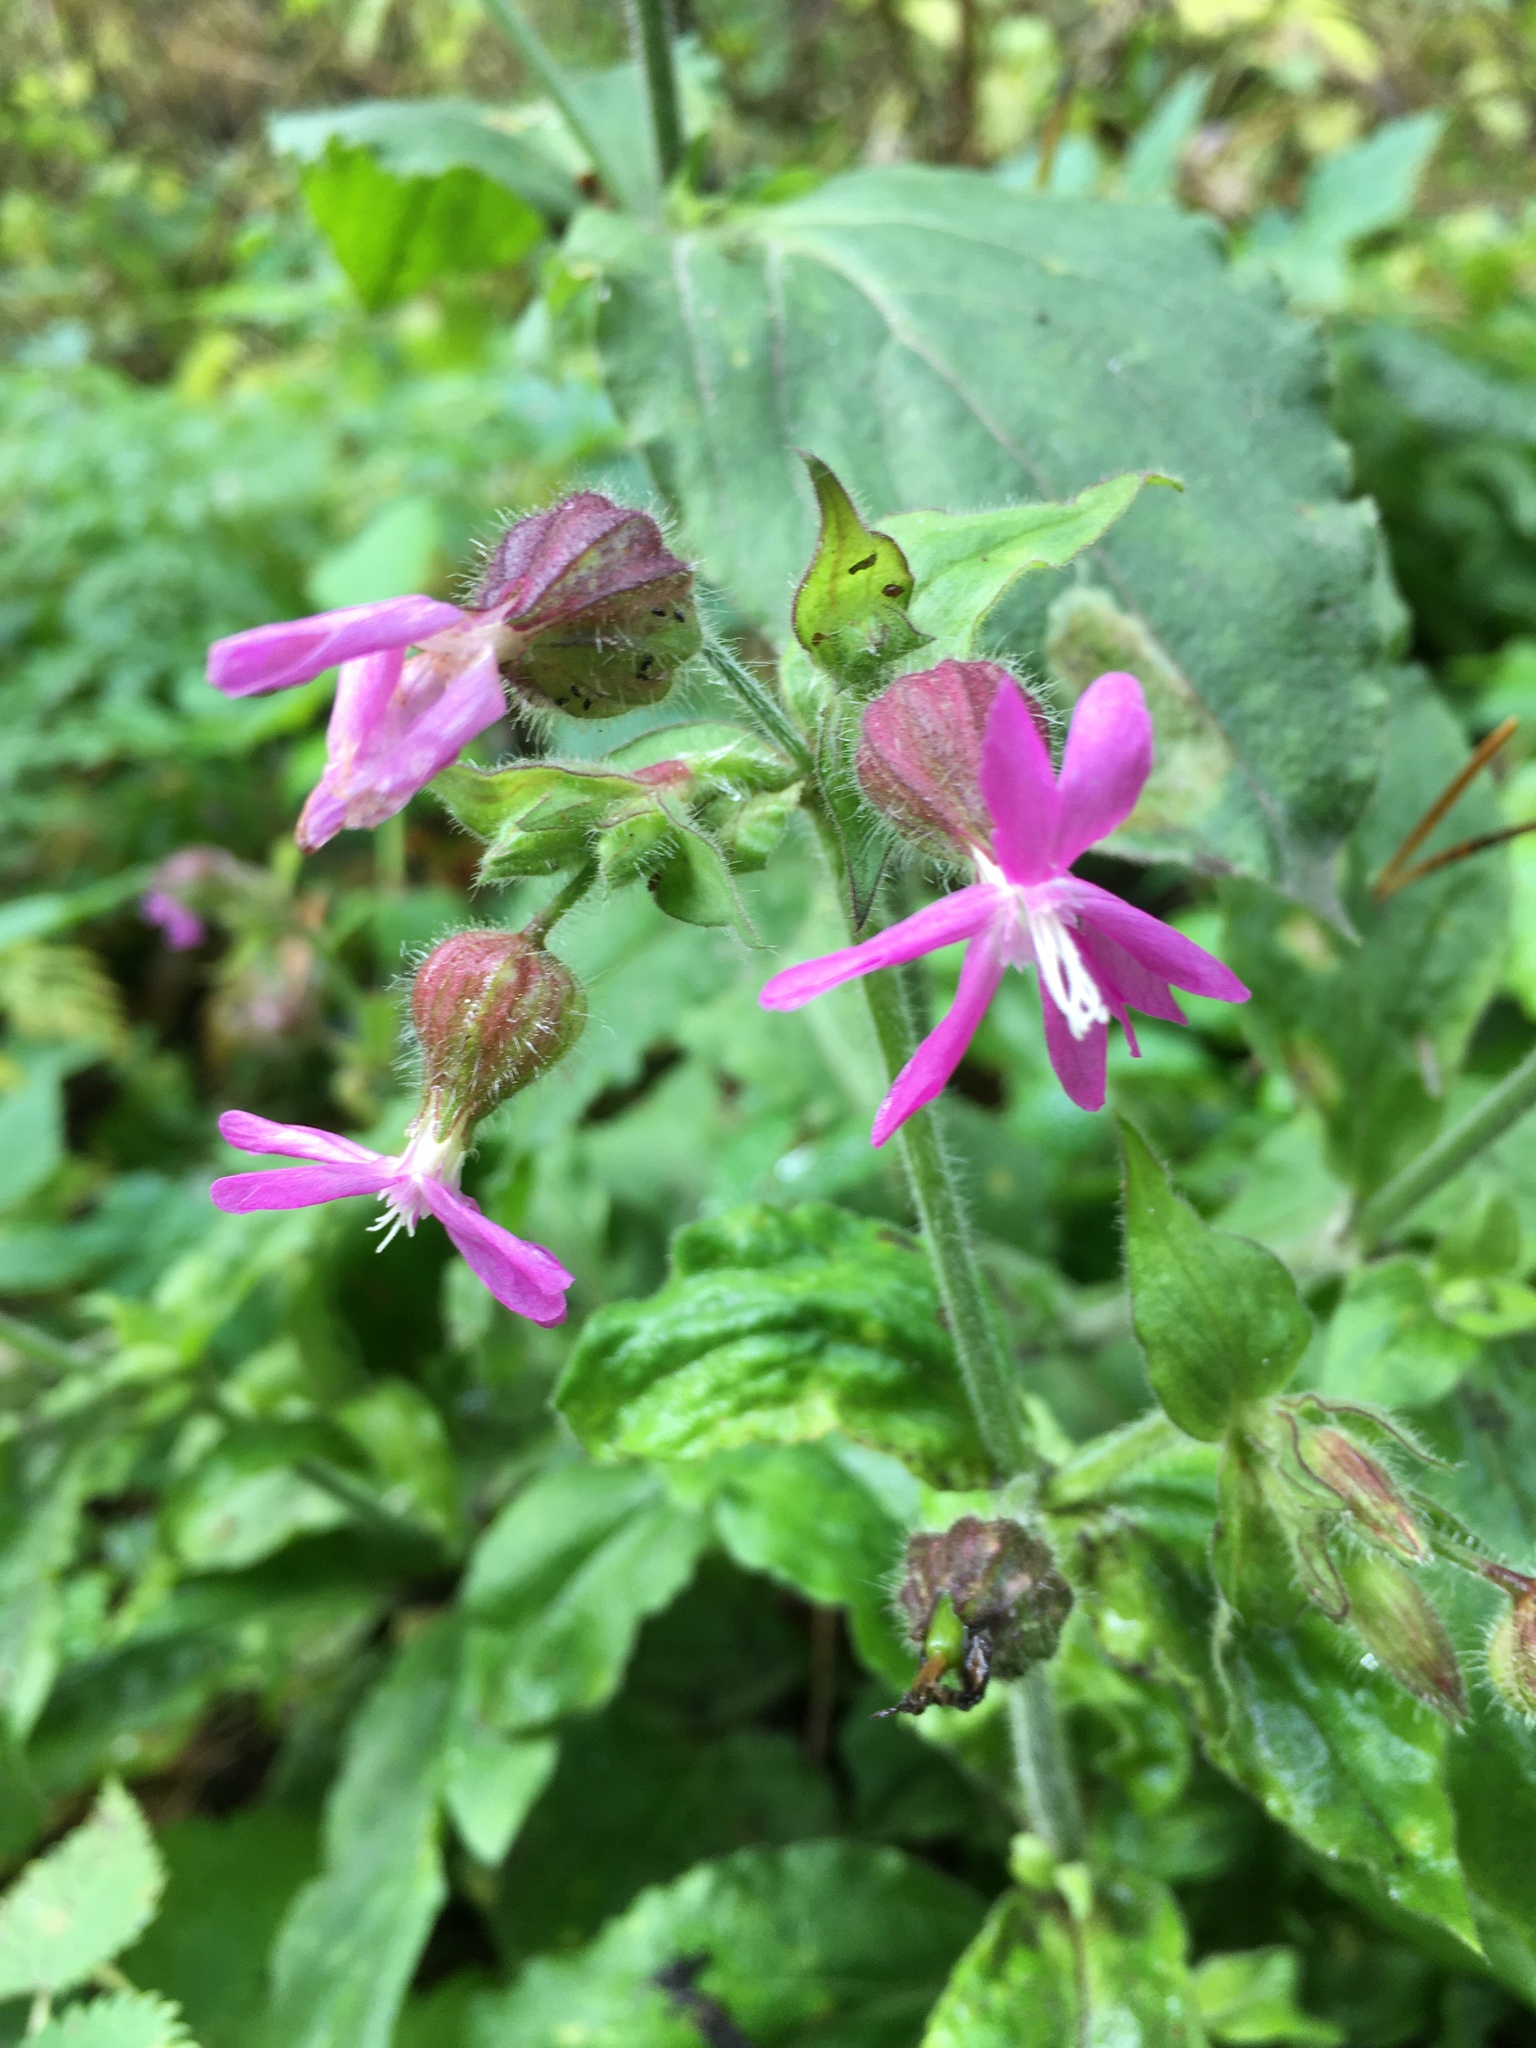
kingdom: Plantae
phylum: Tracheophyta
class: Magnoliopsida
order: Caryophyllales
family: Caryophyllaceae
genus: Silene
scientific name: Silene dioica
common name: Red campion
